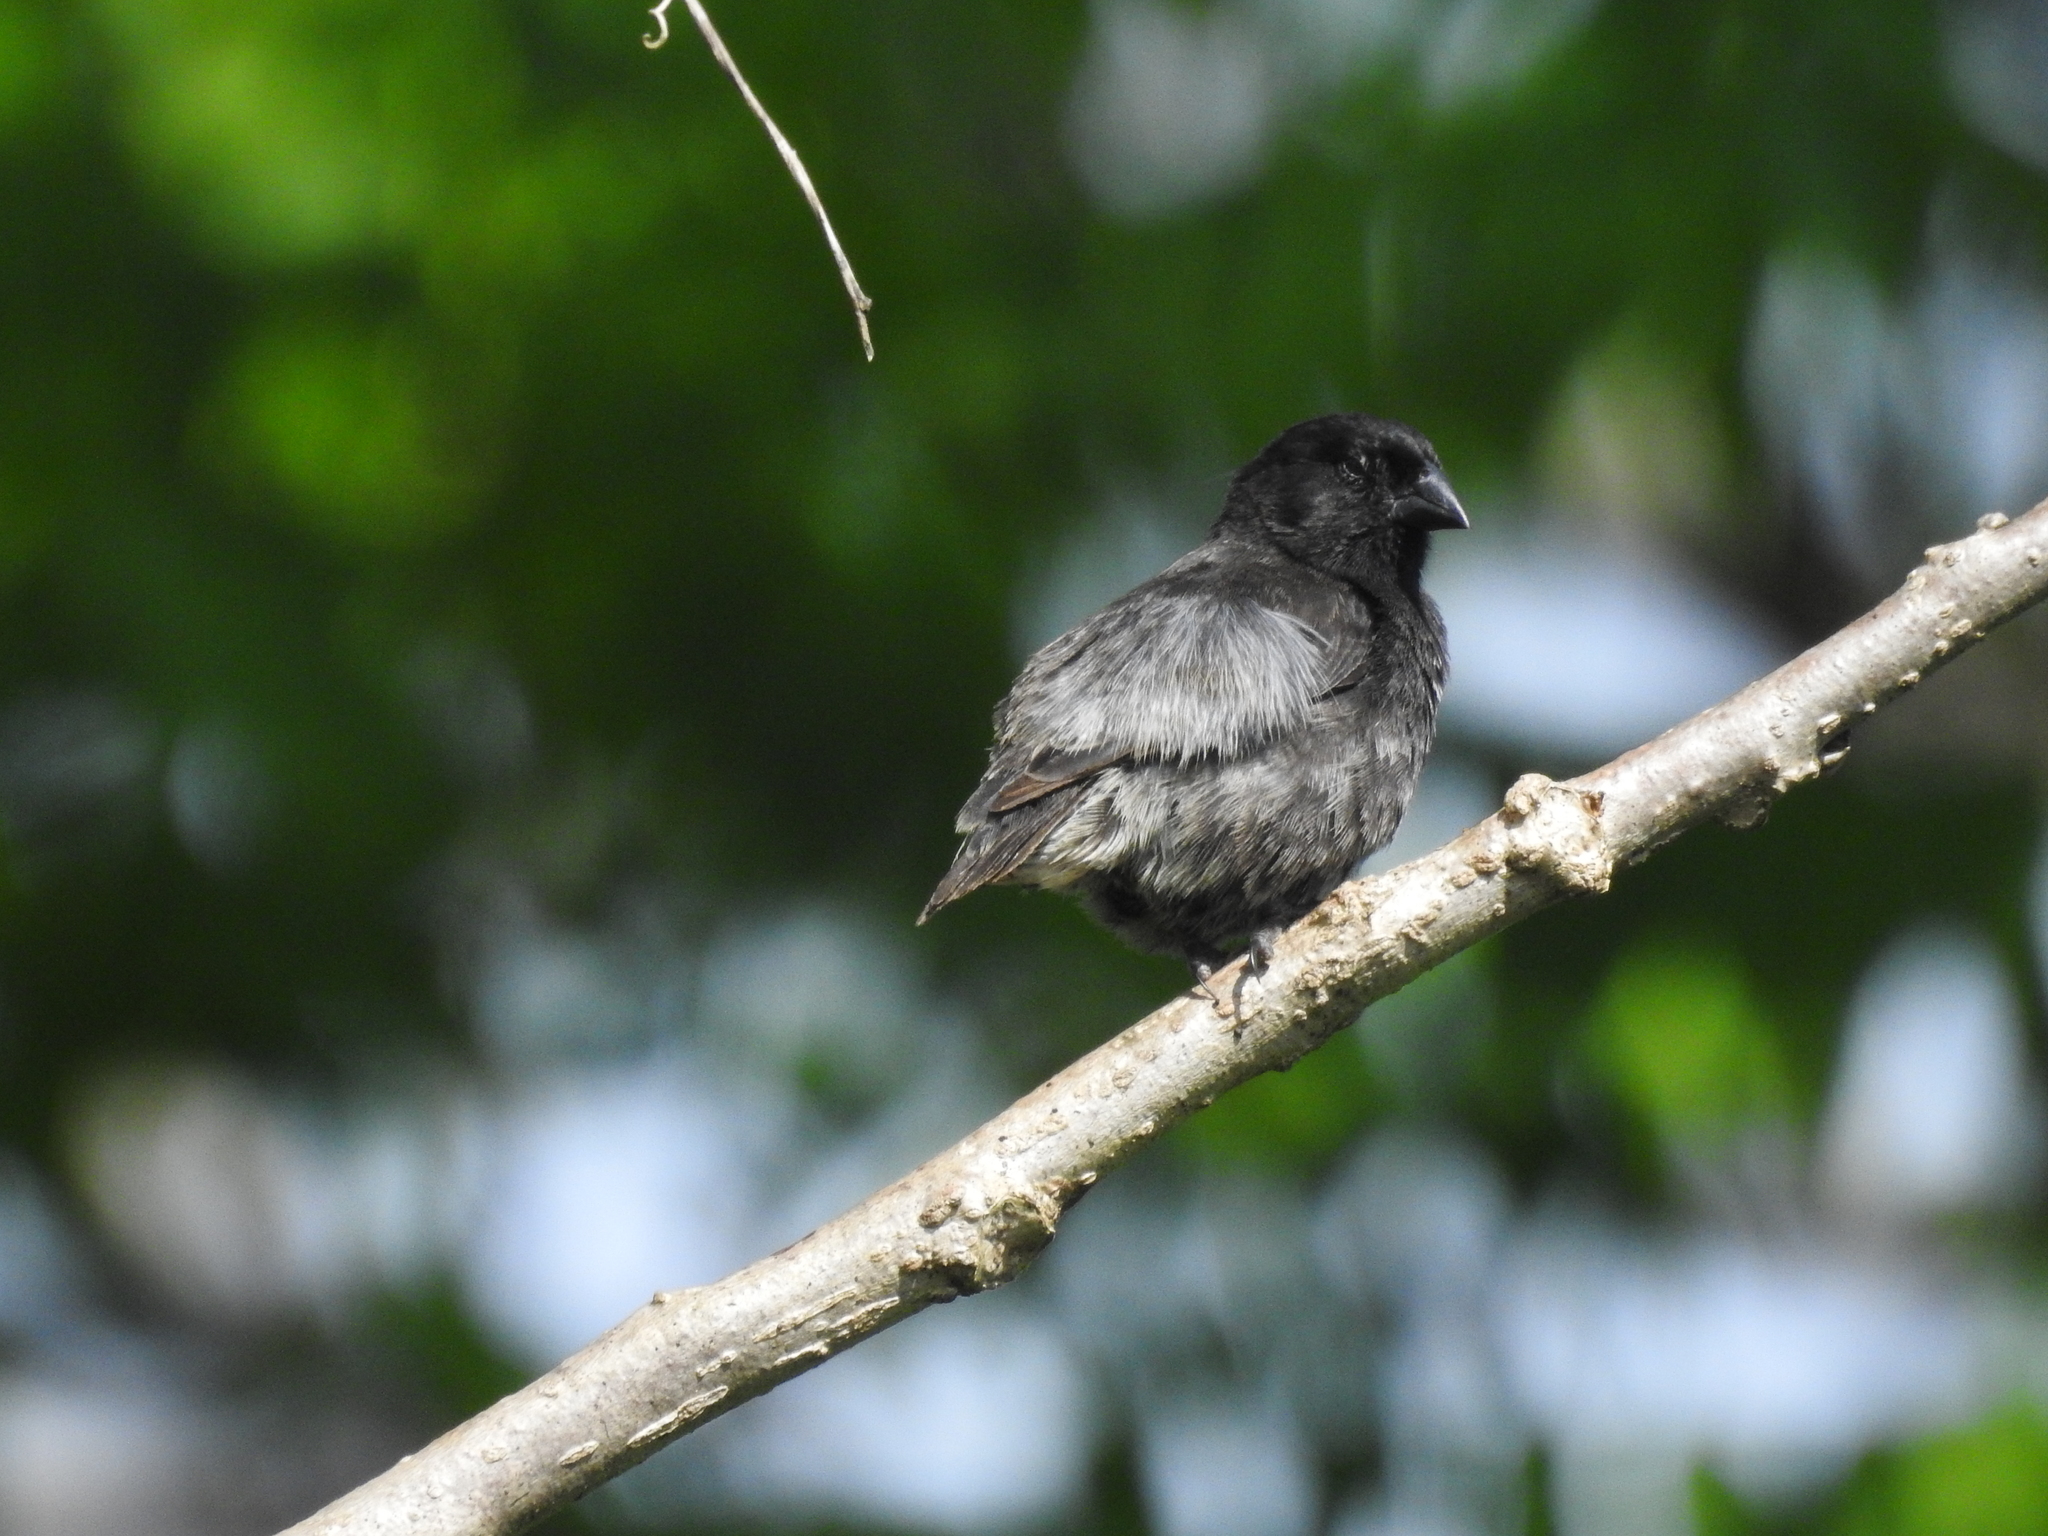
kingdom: Animalia
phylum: Chordata
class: Aves
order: Passeriformes
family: Thraupidae
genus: Geospiza
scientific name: Geospiza fuliginosa
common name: Small ground finch
